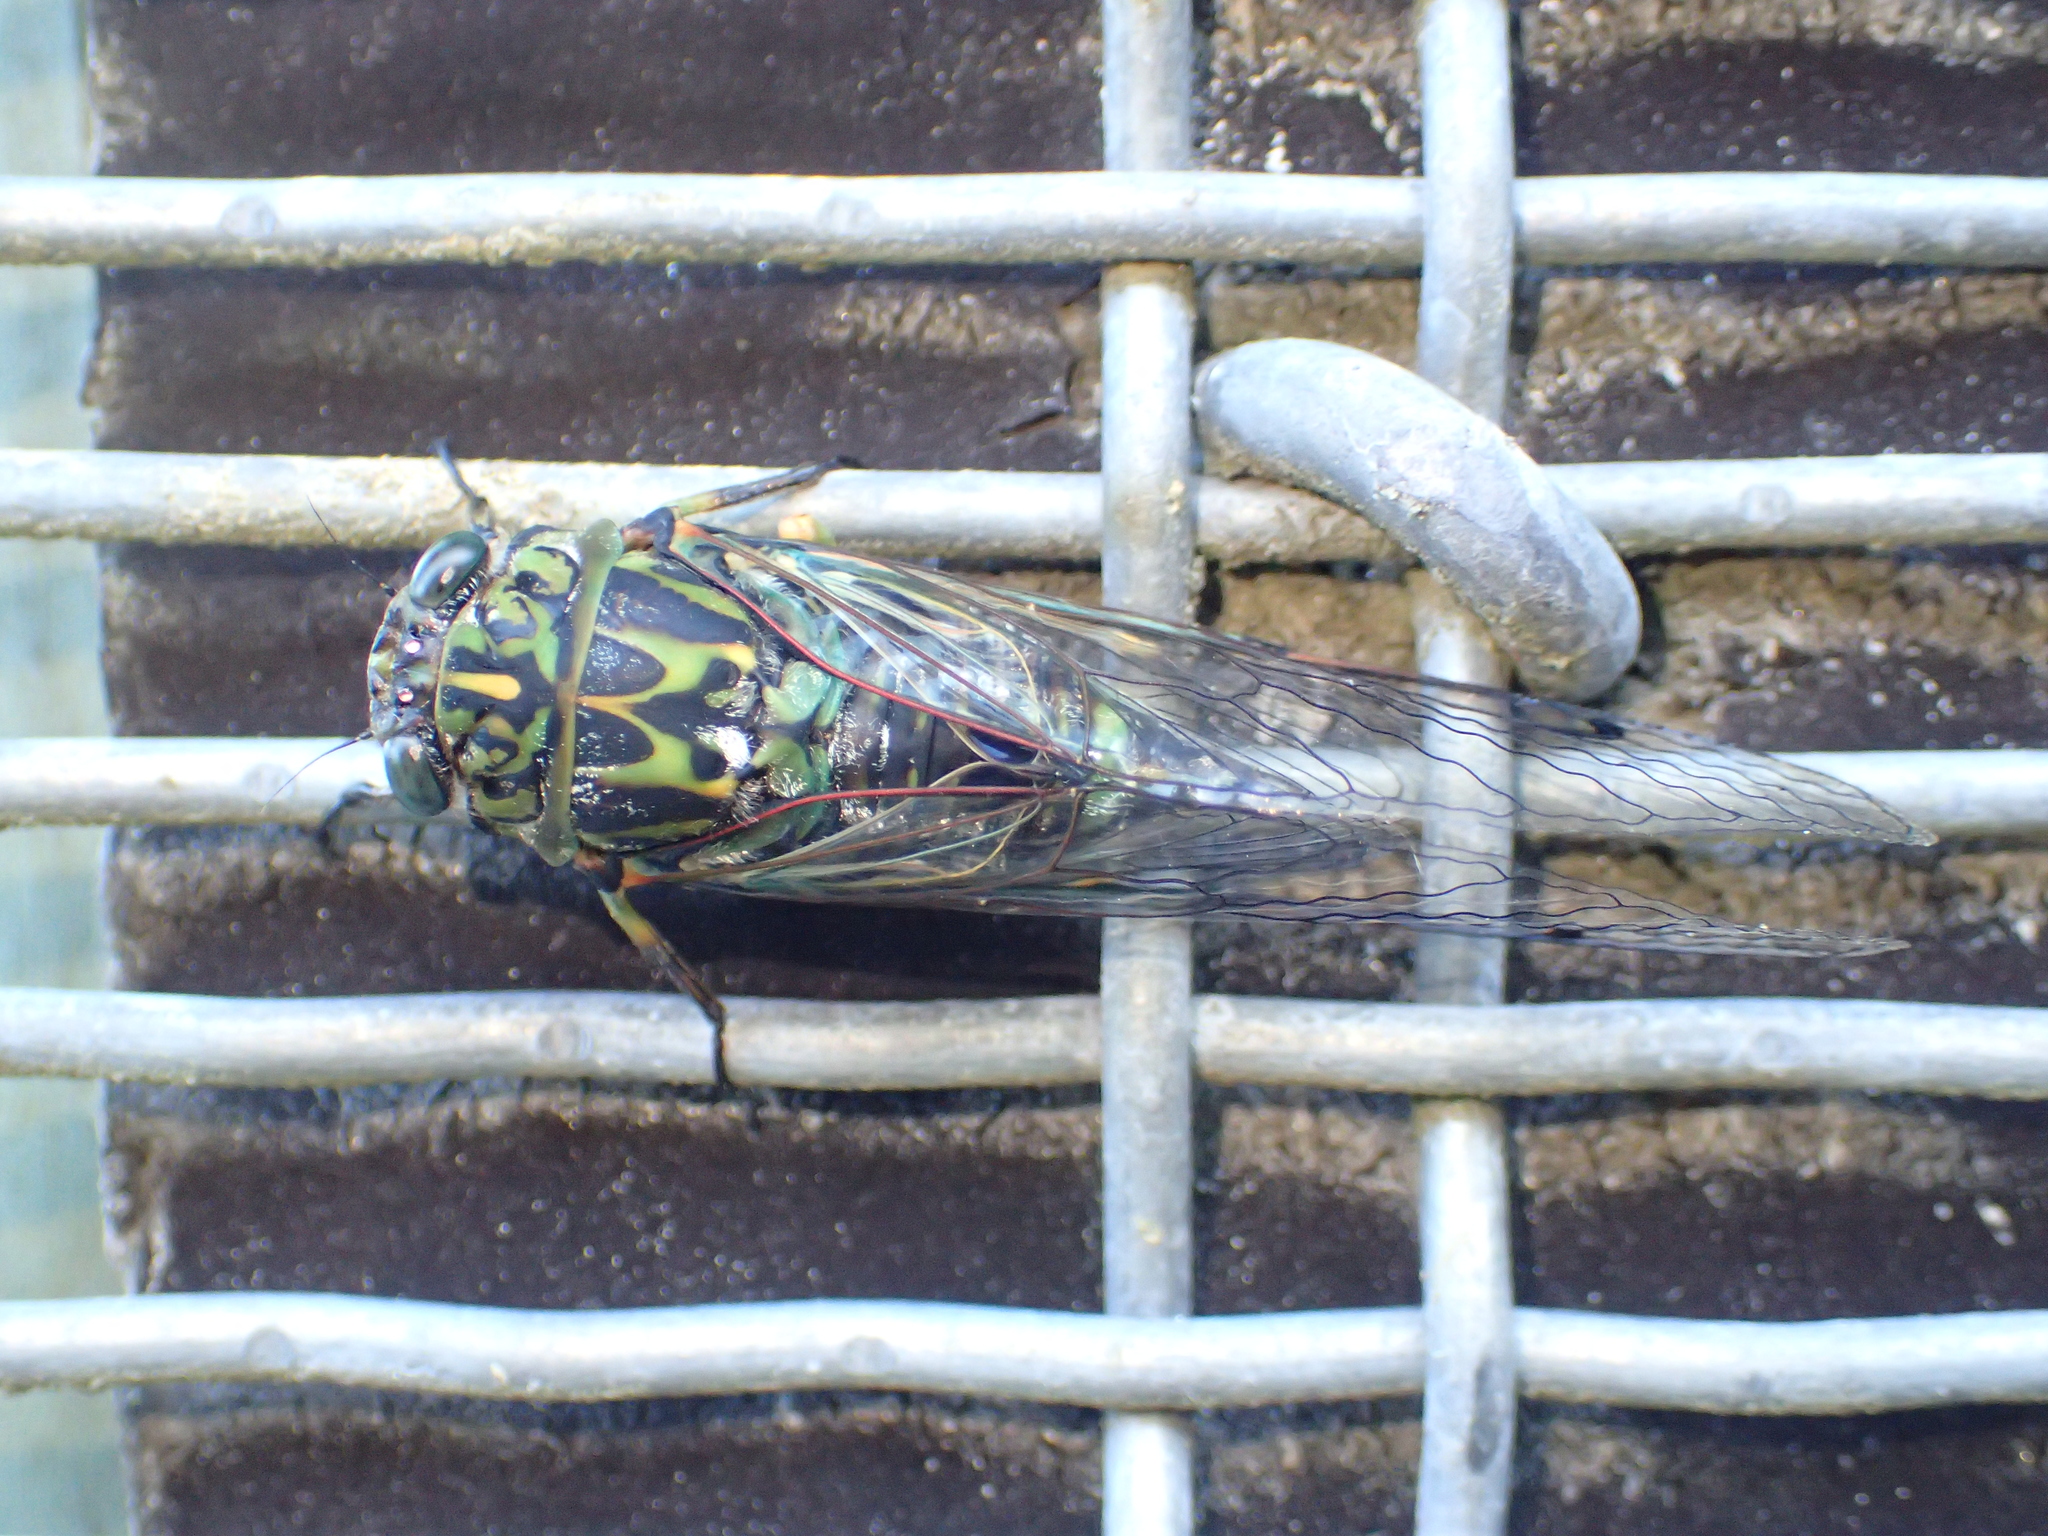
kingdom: Animalia
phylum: Arthropoda
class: Insecta
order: Hemiptera
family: Cicadidae
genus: Amphipsalta
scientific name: Amphipsalta zelandica
